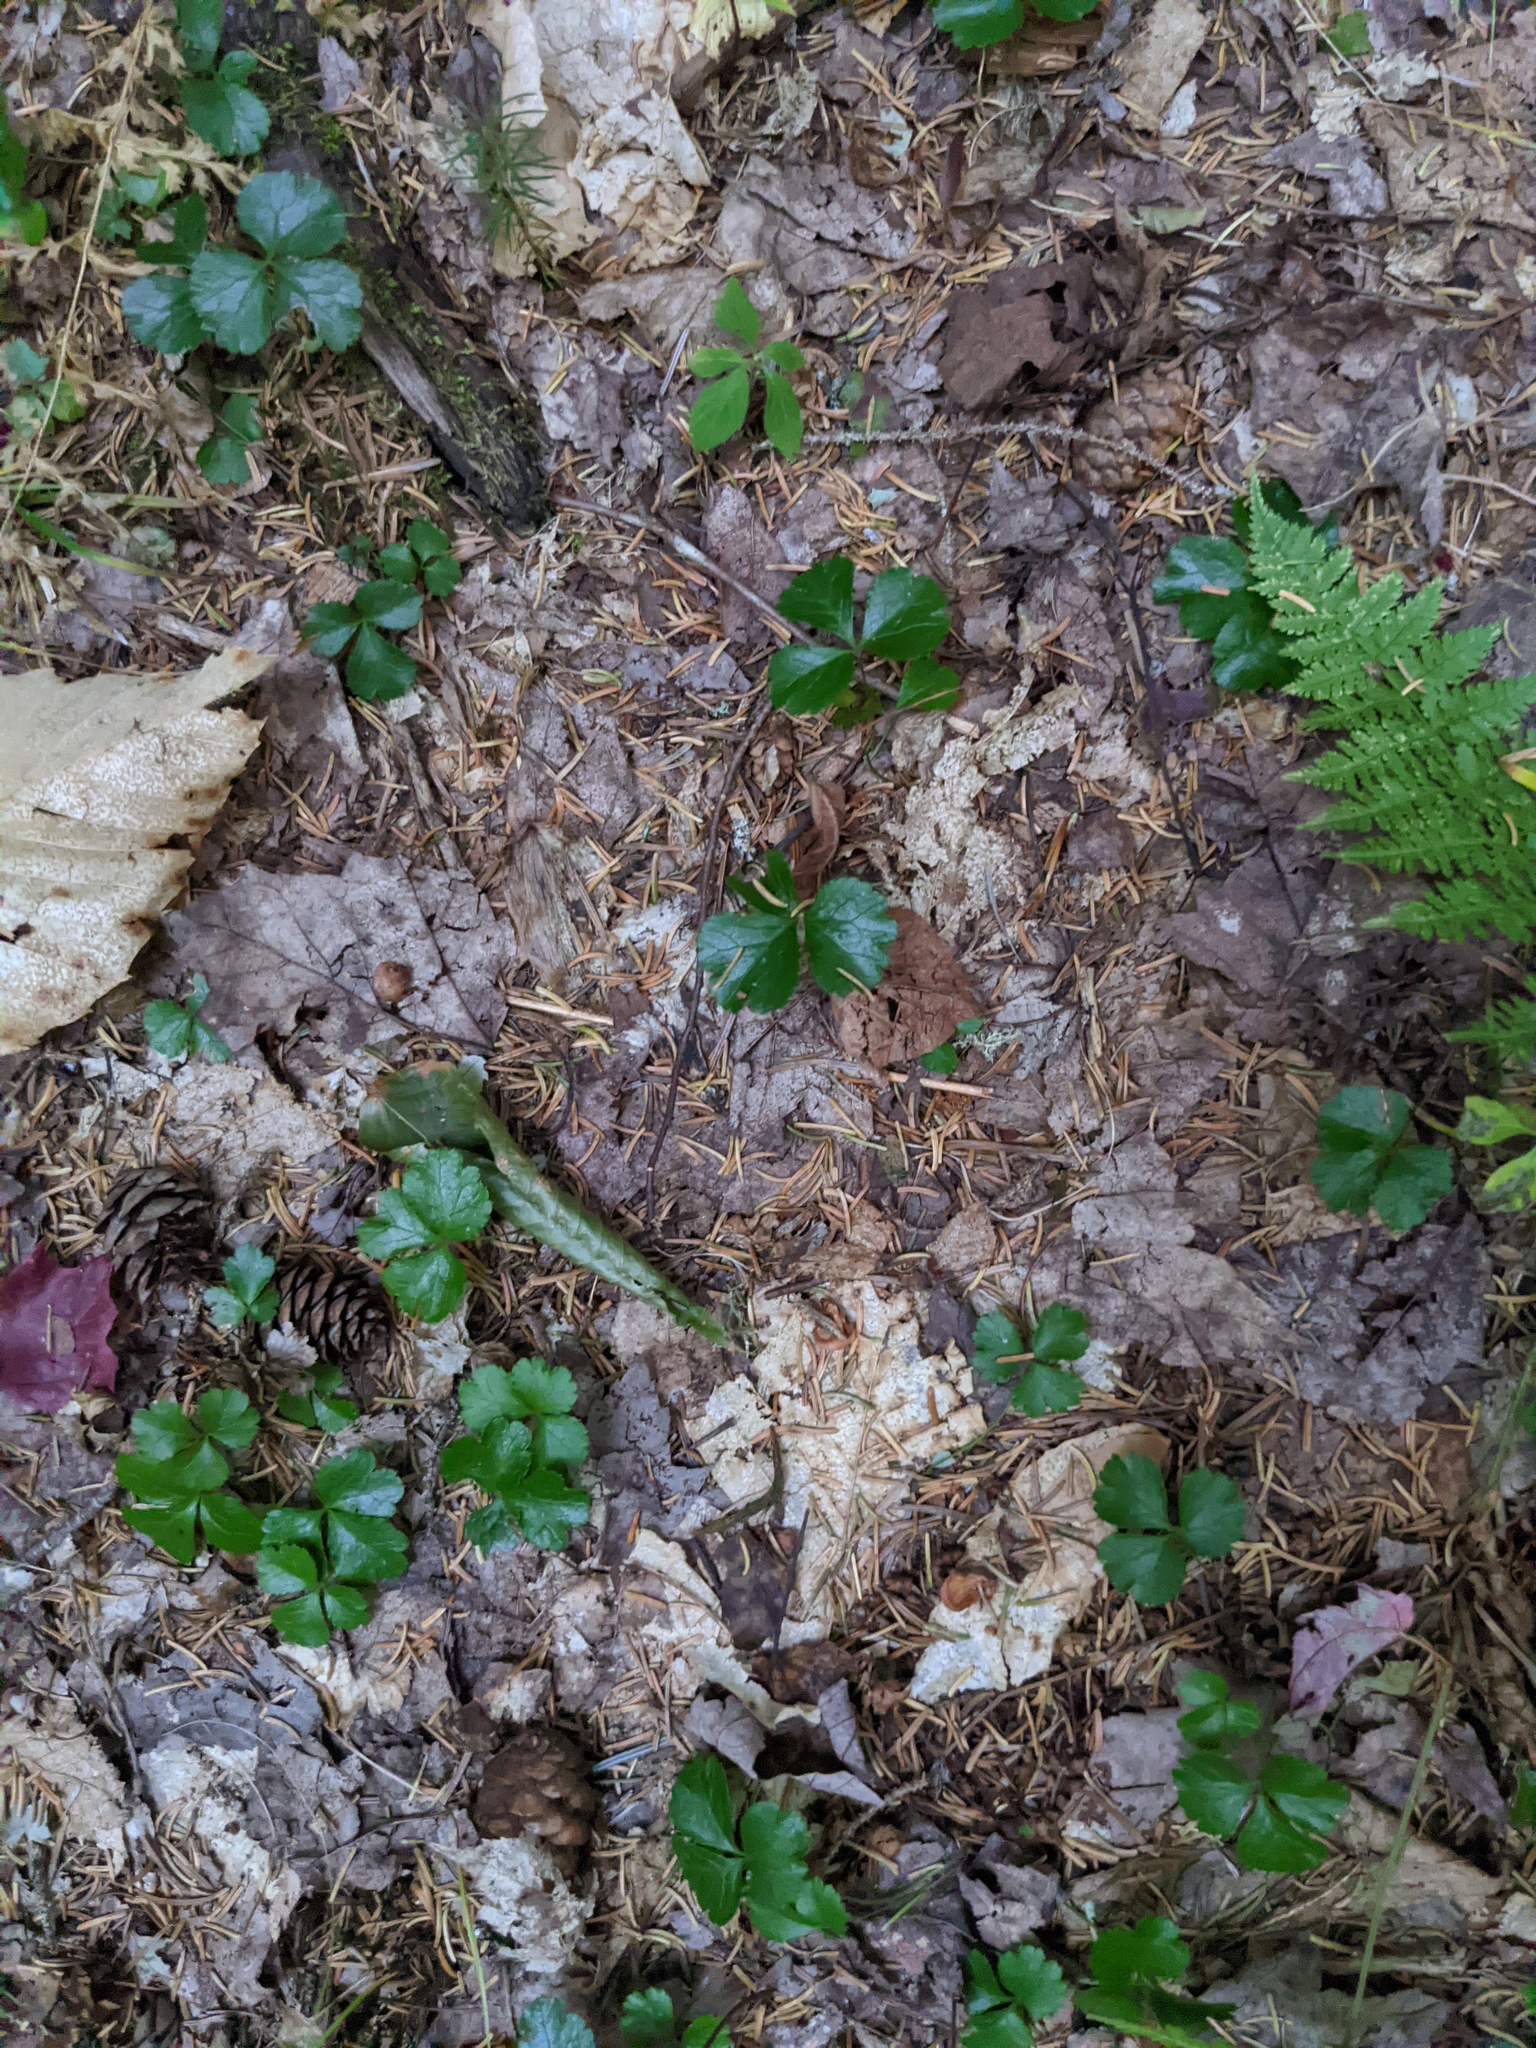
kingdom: Plantae
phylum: Tracheophyta
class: Magnoliopsida
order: Ranunculales
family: Ranunculaceae
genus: Coptis
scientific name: Coptis trifolia
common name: Canker-root
